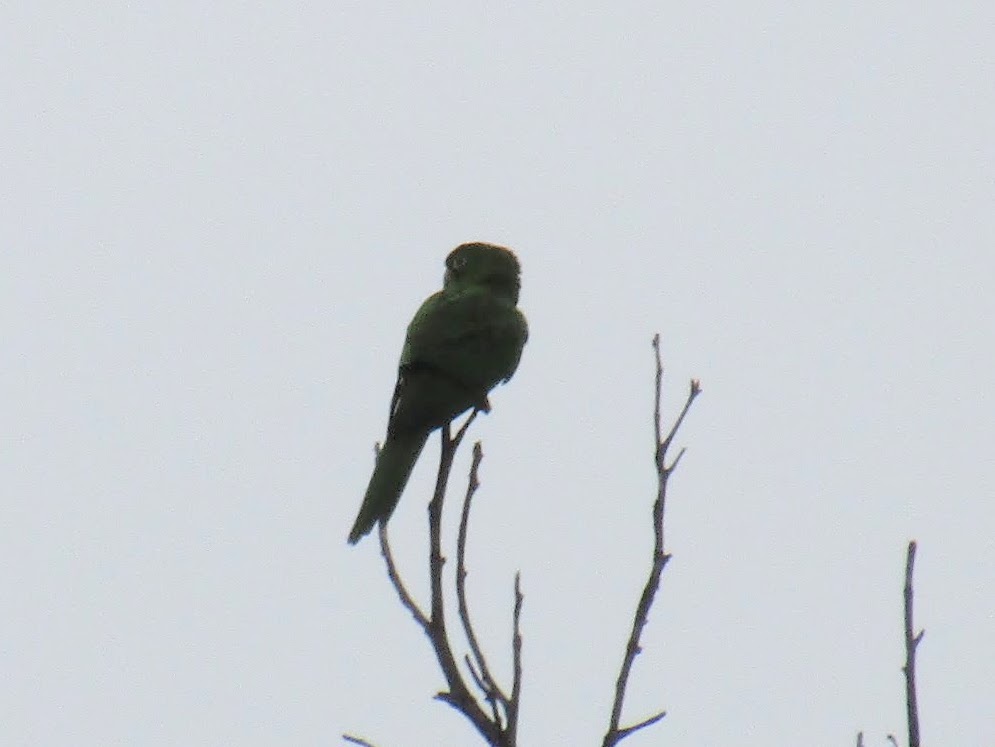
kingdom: Animalia
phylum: Chordata
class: Aves
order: Psittaciformes
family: Psittacidae
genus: Aratinga
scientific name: Aratinga leucophthalma
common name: White-eyed parakeet
